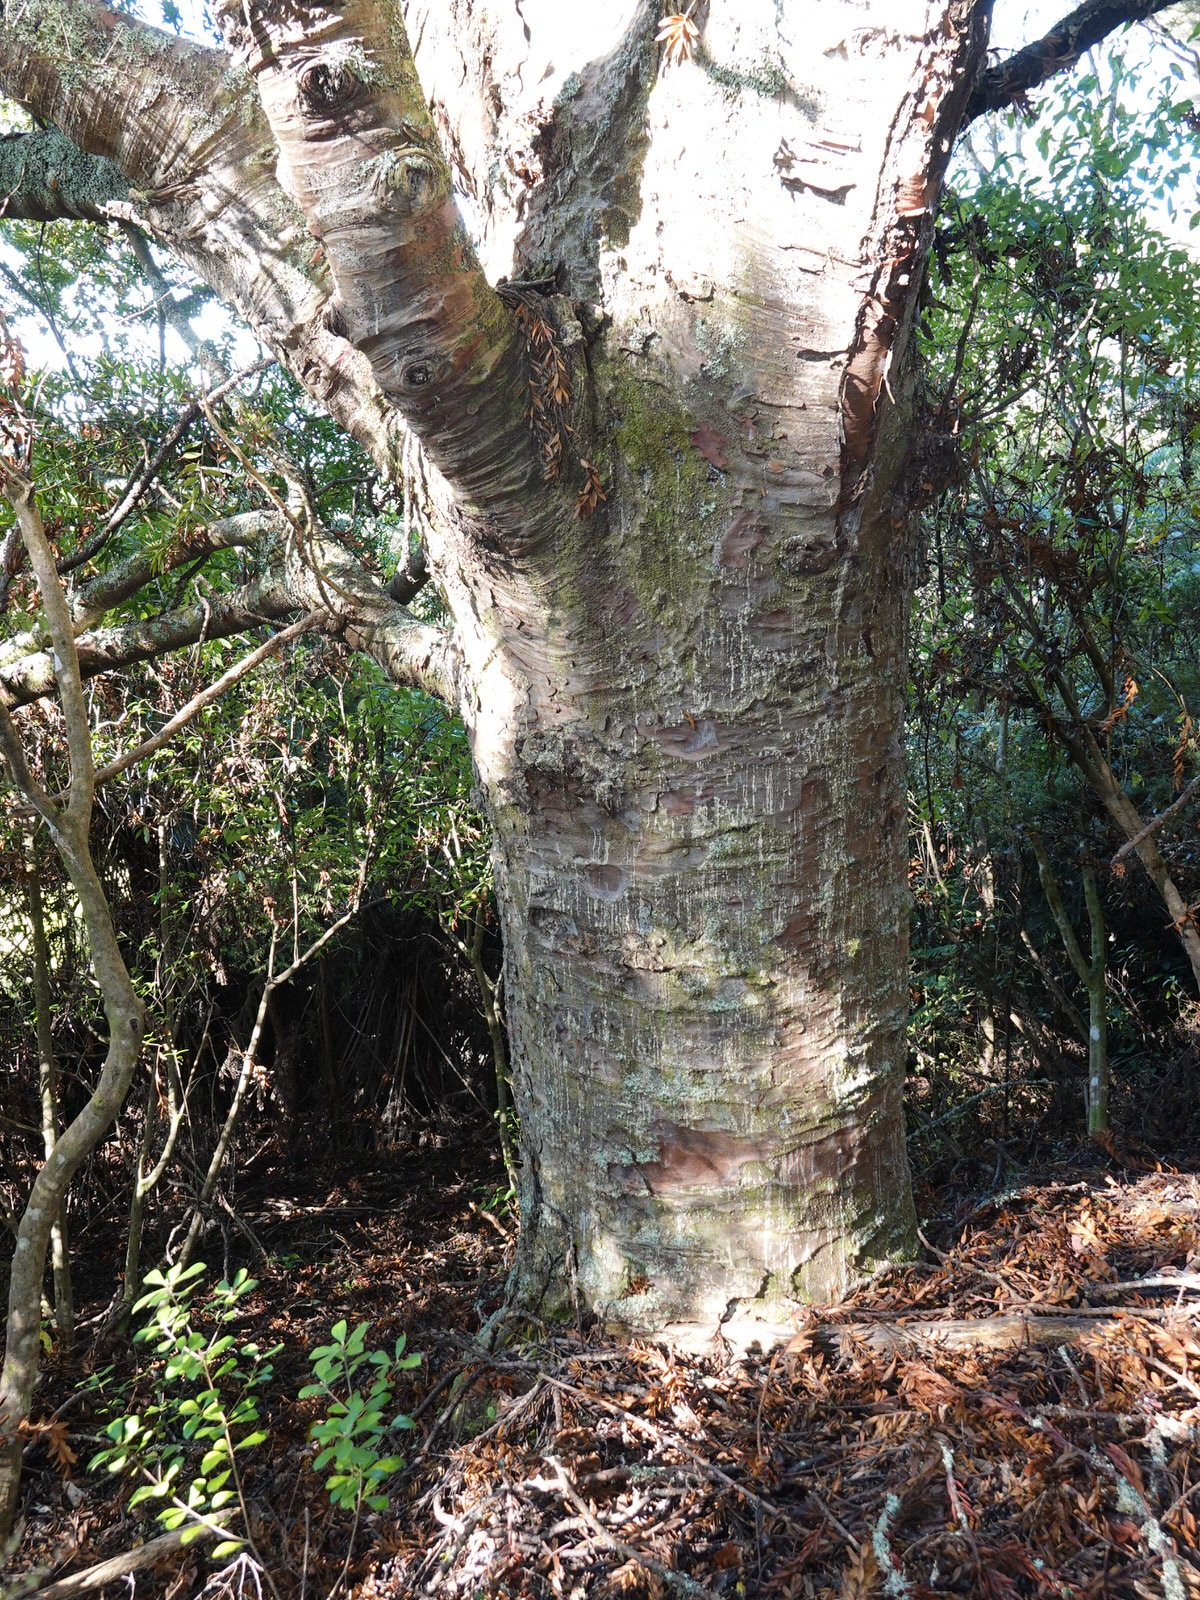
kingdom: Plantae
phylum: Tracheophyta
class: Pinopsida
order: Pinales
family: Araucariaceae
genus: Agathis
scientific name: Agathis australis
